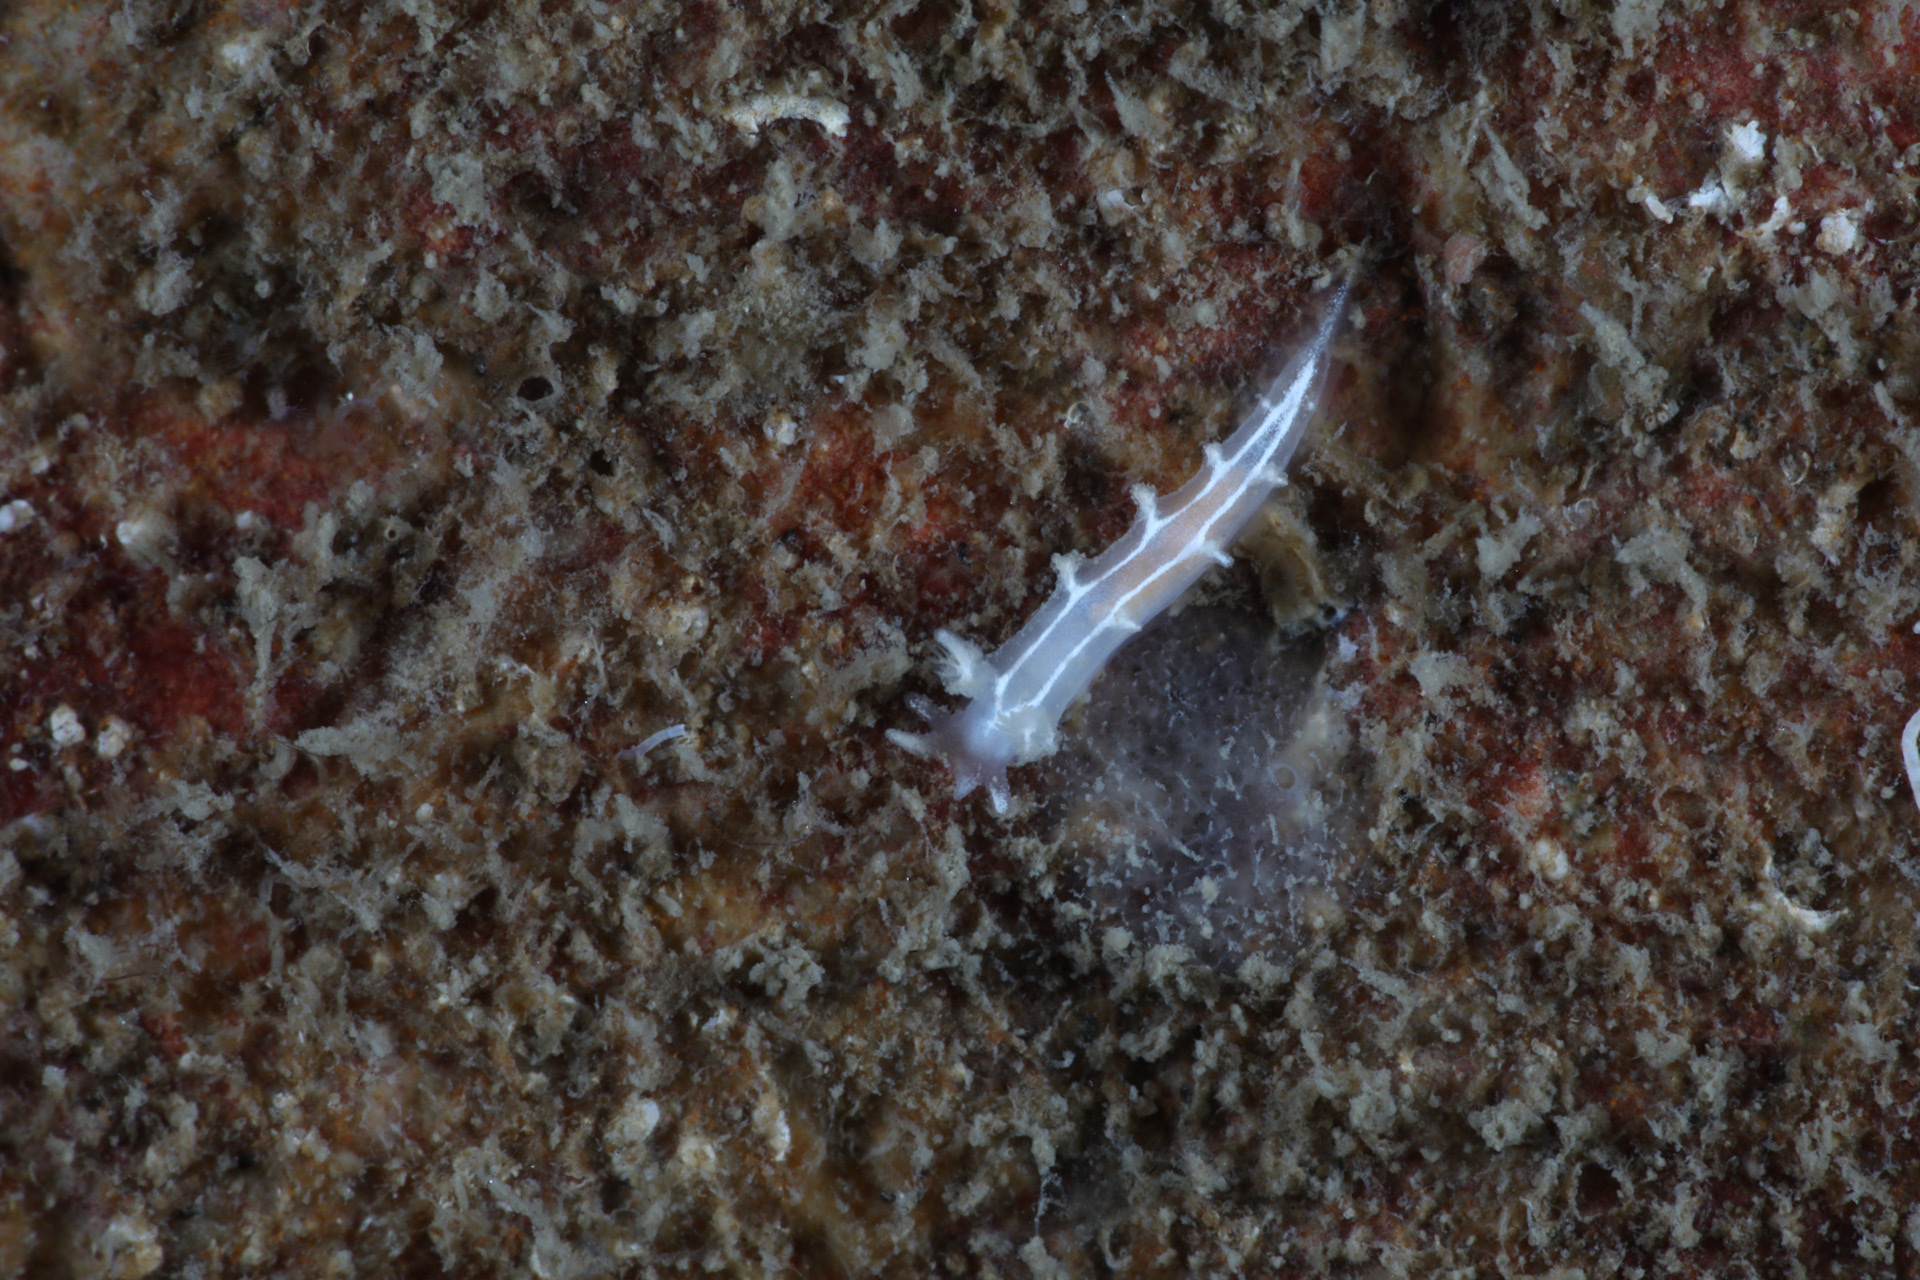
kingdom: Animalia
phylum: Mollusca
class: Gastropoda
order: Nudibranchia
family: Tritoniidae
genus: Duvaucelia
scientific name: Duvaucelia lineata
